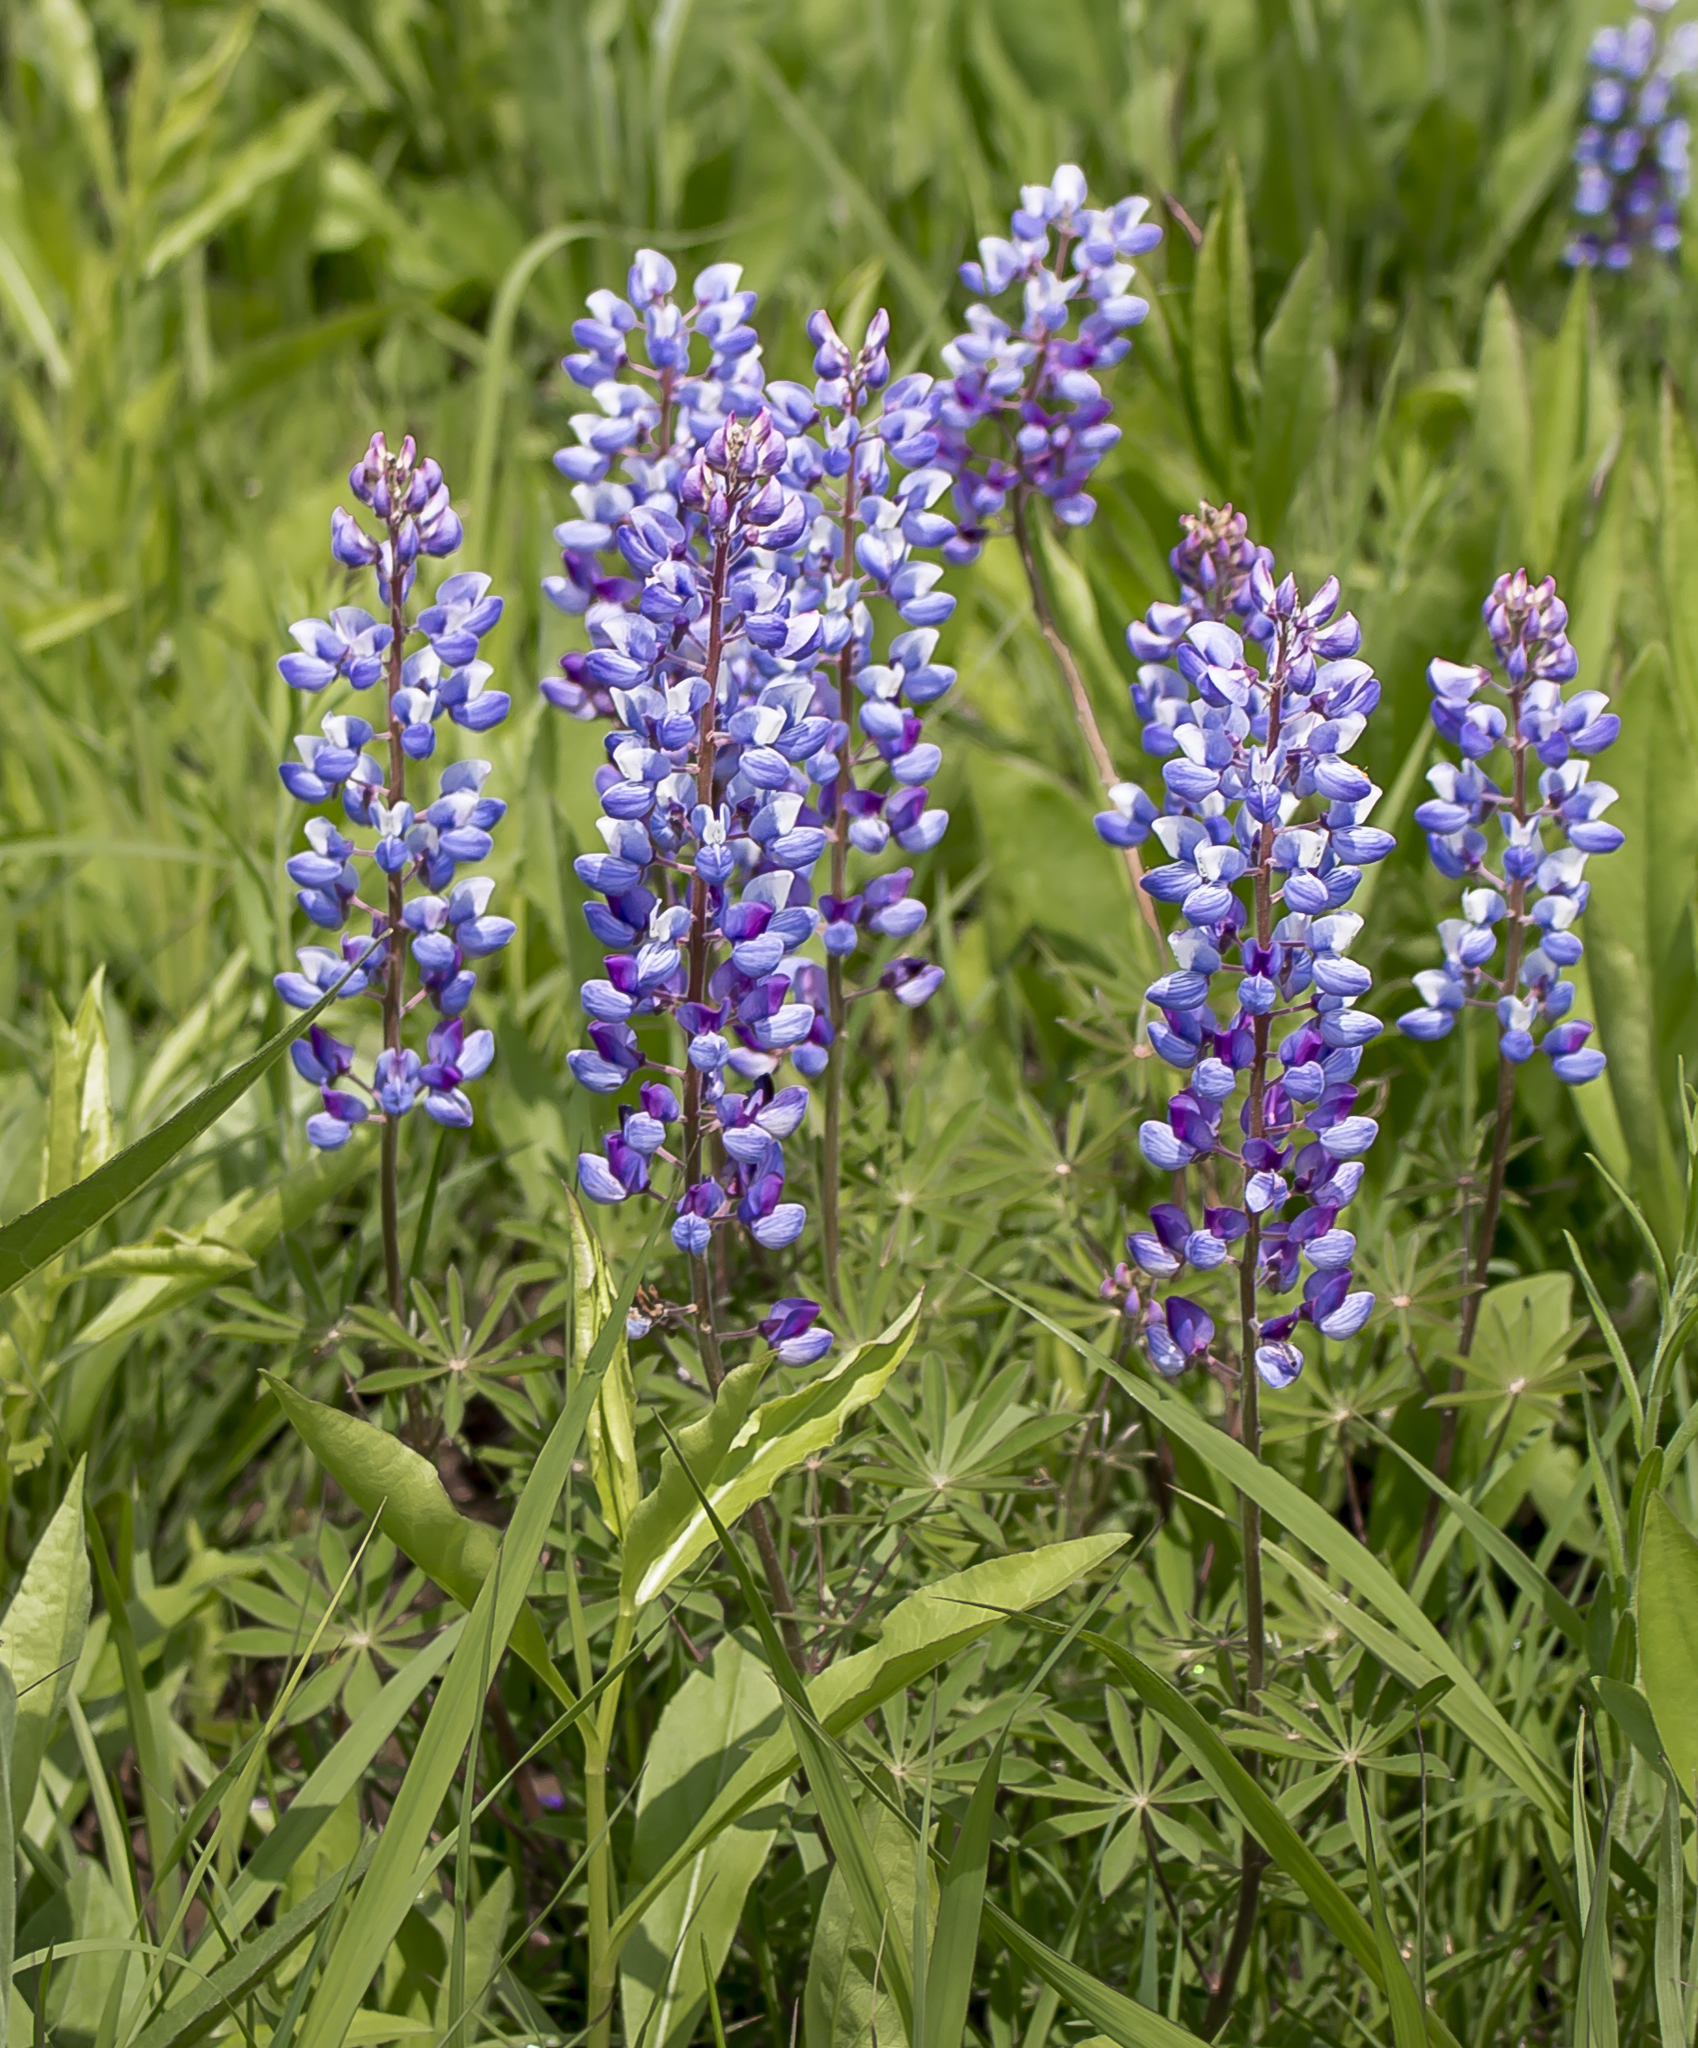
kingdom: Plantae
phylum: Tracheophyta
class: Magnoliopsida
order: Fabales
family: Fabaceae
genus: Lupinus
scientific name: Lupinus perennis
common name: Sundial lupine
